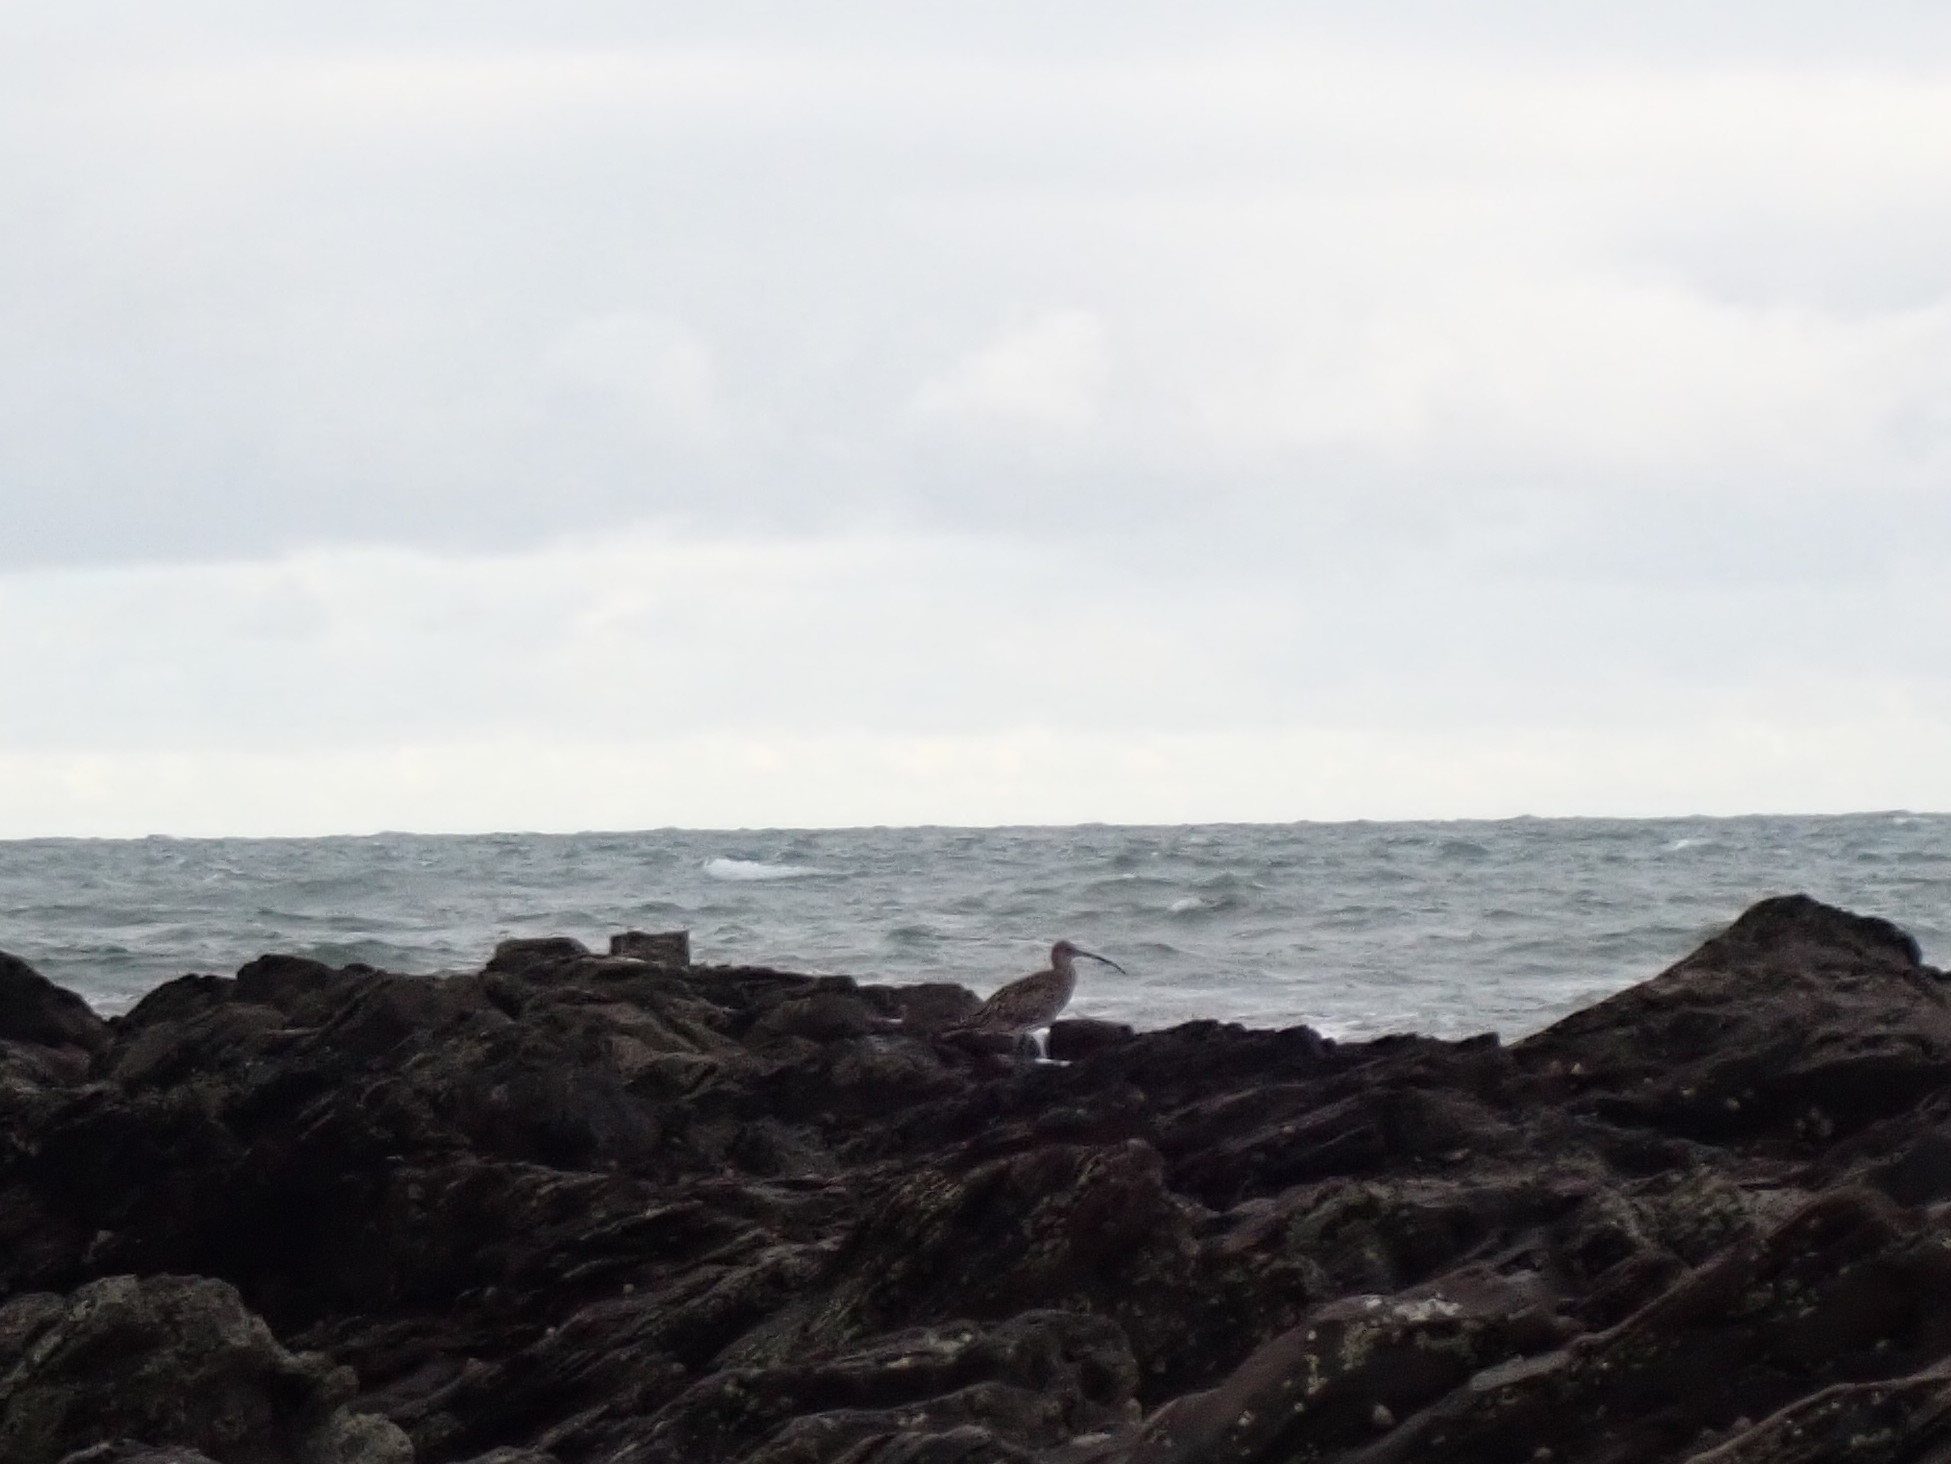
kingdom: Animalia
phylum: Chordata
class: Aves
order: Charadriiformes
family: Scolopacidae
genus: Numenius
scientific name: Numenius arquata
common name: Eurasian curlew
